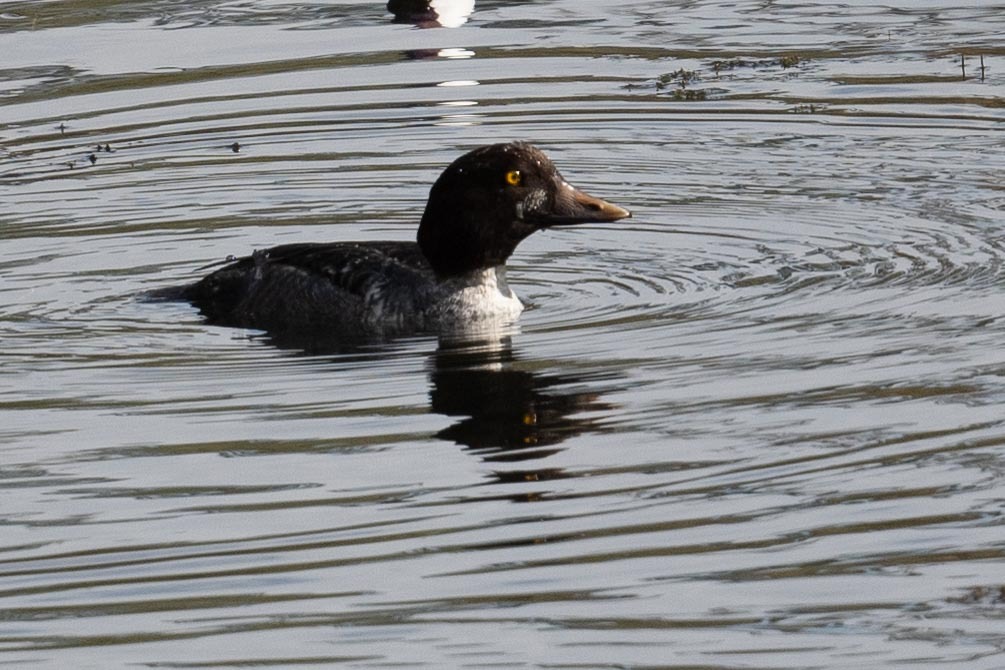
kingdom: Animalia
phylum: Chordata
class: Aves
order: Anseriformes
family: Anatidae
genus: Bucephala
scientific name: Bucephala clangula
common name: Common goldeneye
